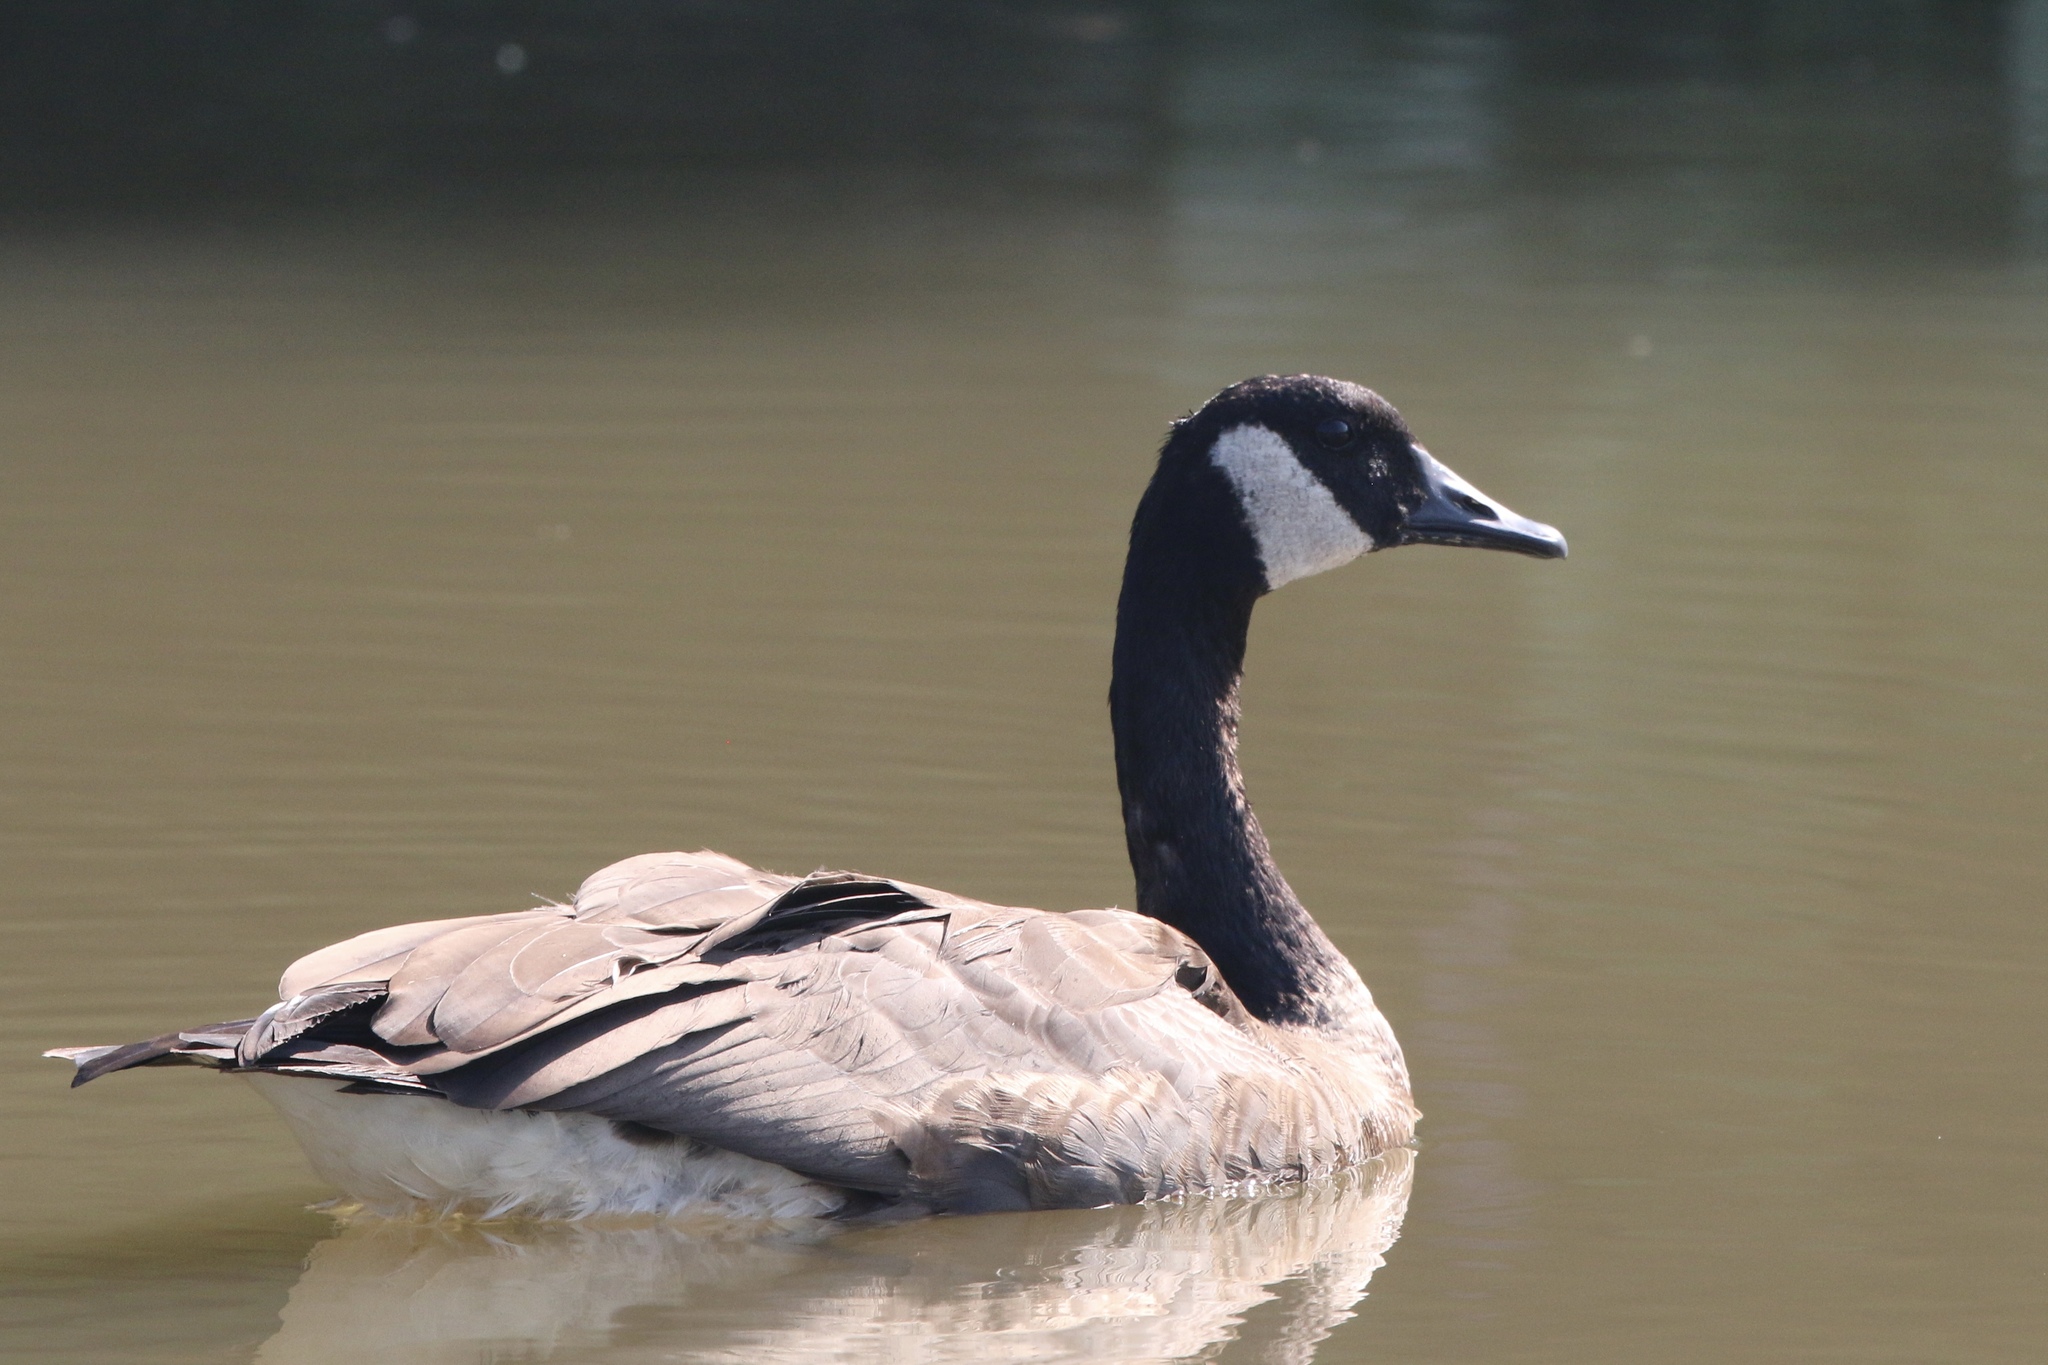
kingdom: Animalia
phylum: Chordata
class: Aves
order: Anseriformes
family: Anatidae
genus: Branta
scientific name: Branta canadensis
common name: Canada goose
